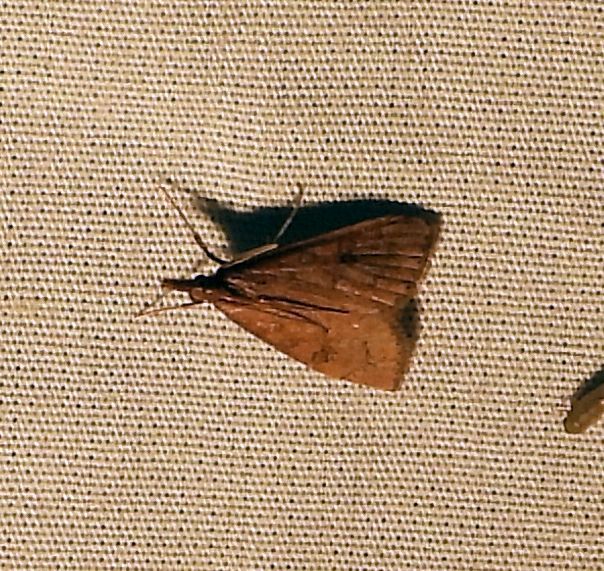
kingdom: Animalia
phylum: Arthropoda
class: Insecta
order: Lepidoptera
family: Crambidae
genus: Udea
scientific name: Udea rubigalis
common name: Celery leaftier moth
